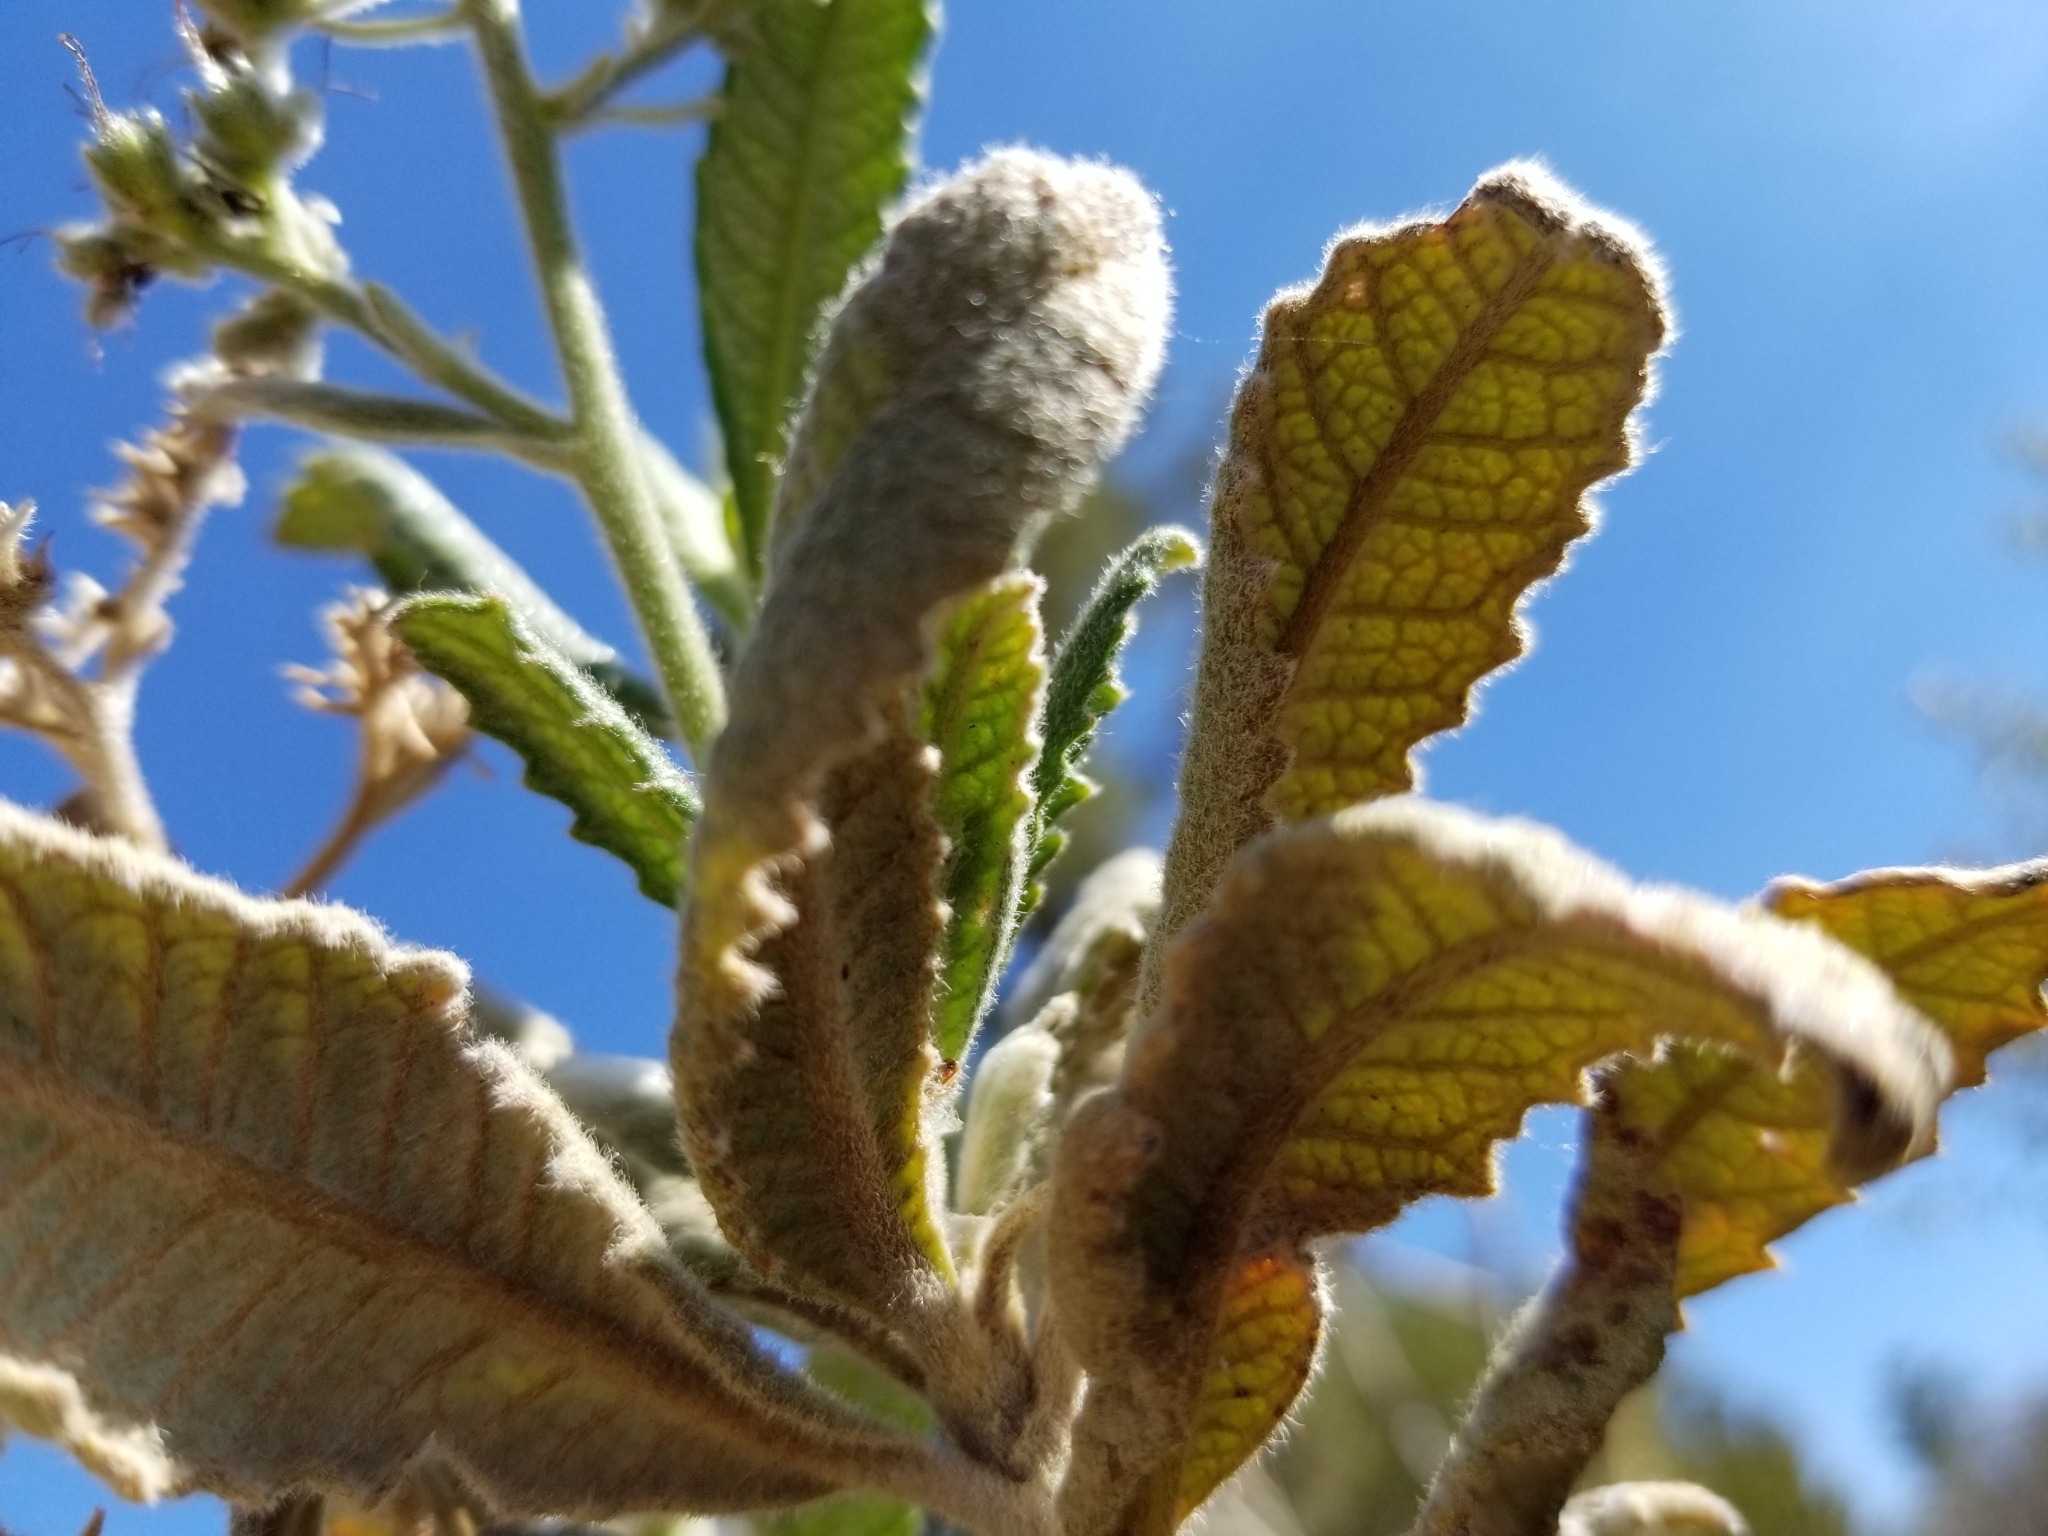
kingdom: Plantae
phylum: Tracheophyta
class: Magnoliopsida
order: Boraginales
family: Namaceae
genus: Eriodictyon
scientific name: Eriodictyon trichocalyx
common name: Hairy yerba-santa
